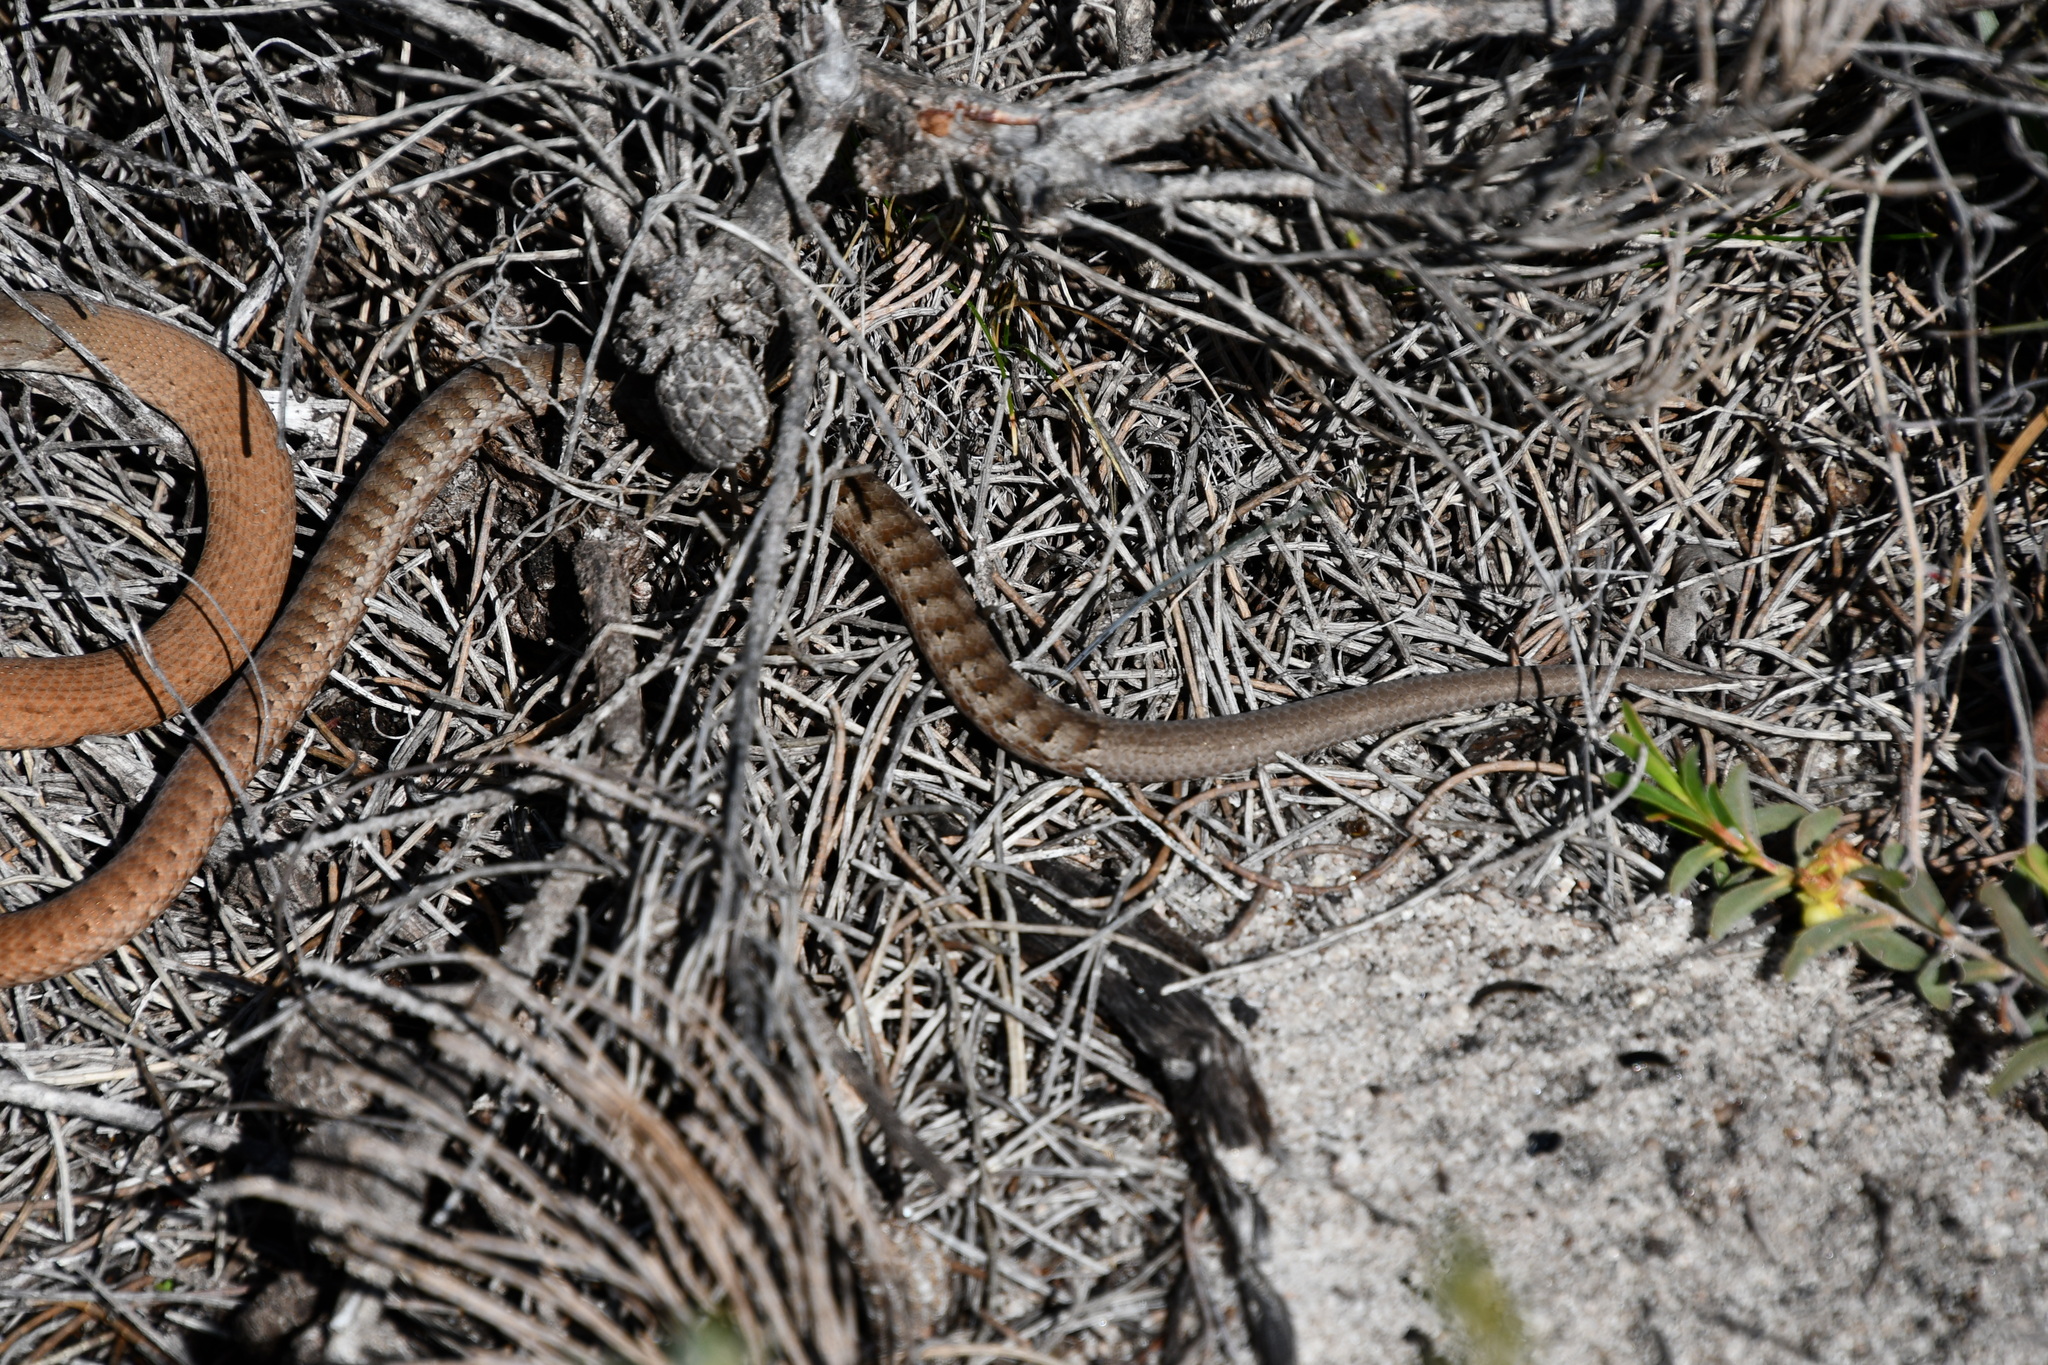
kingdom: Animalia
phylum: Chordata
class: Squamata
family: Pygopodidae
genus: Pygopus
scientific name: Pygopus lepidopodus
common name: Southern scaly-foot
